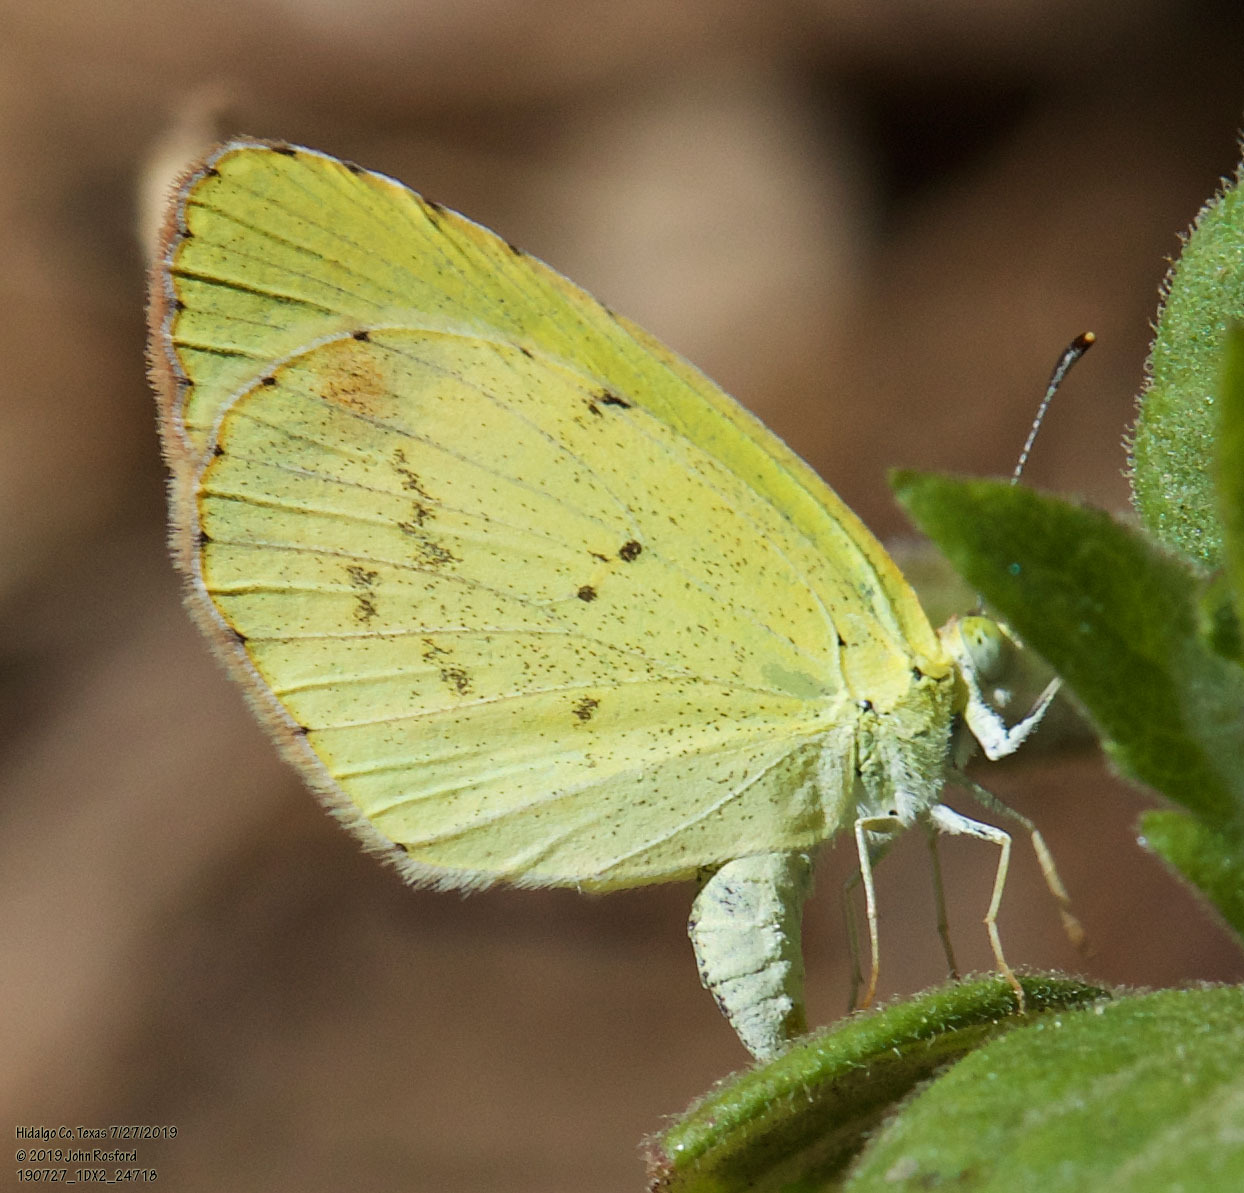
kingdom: Animalia
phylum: Arthropoda
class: Insecta
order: Lepidoptera
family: Pieridae
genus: Pyrisitia
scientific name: Pyrisitia lisa
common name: Little yellow
